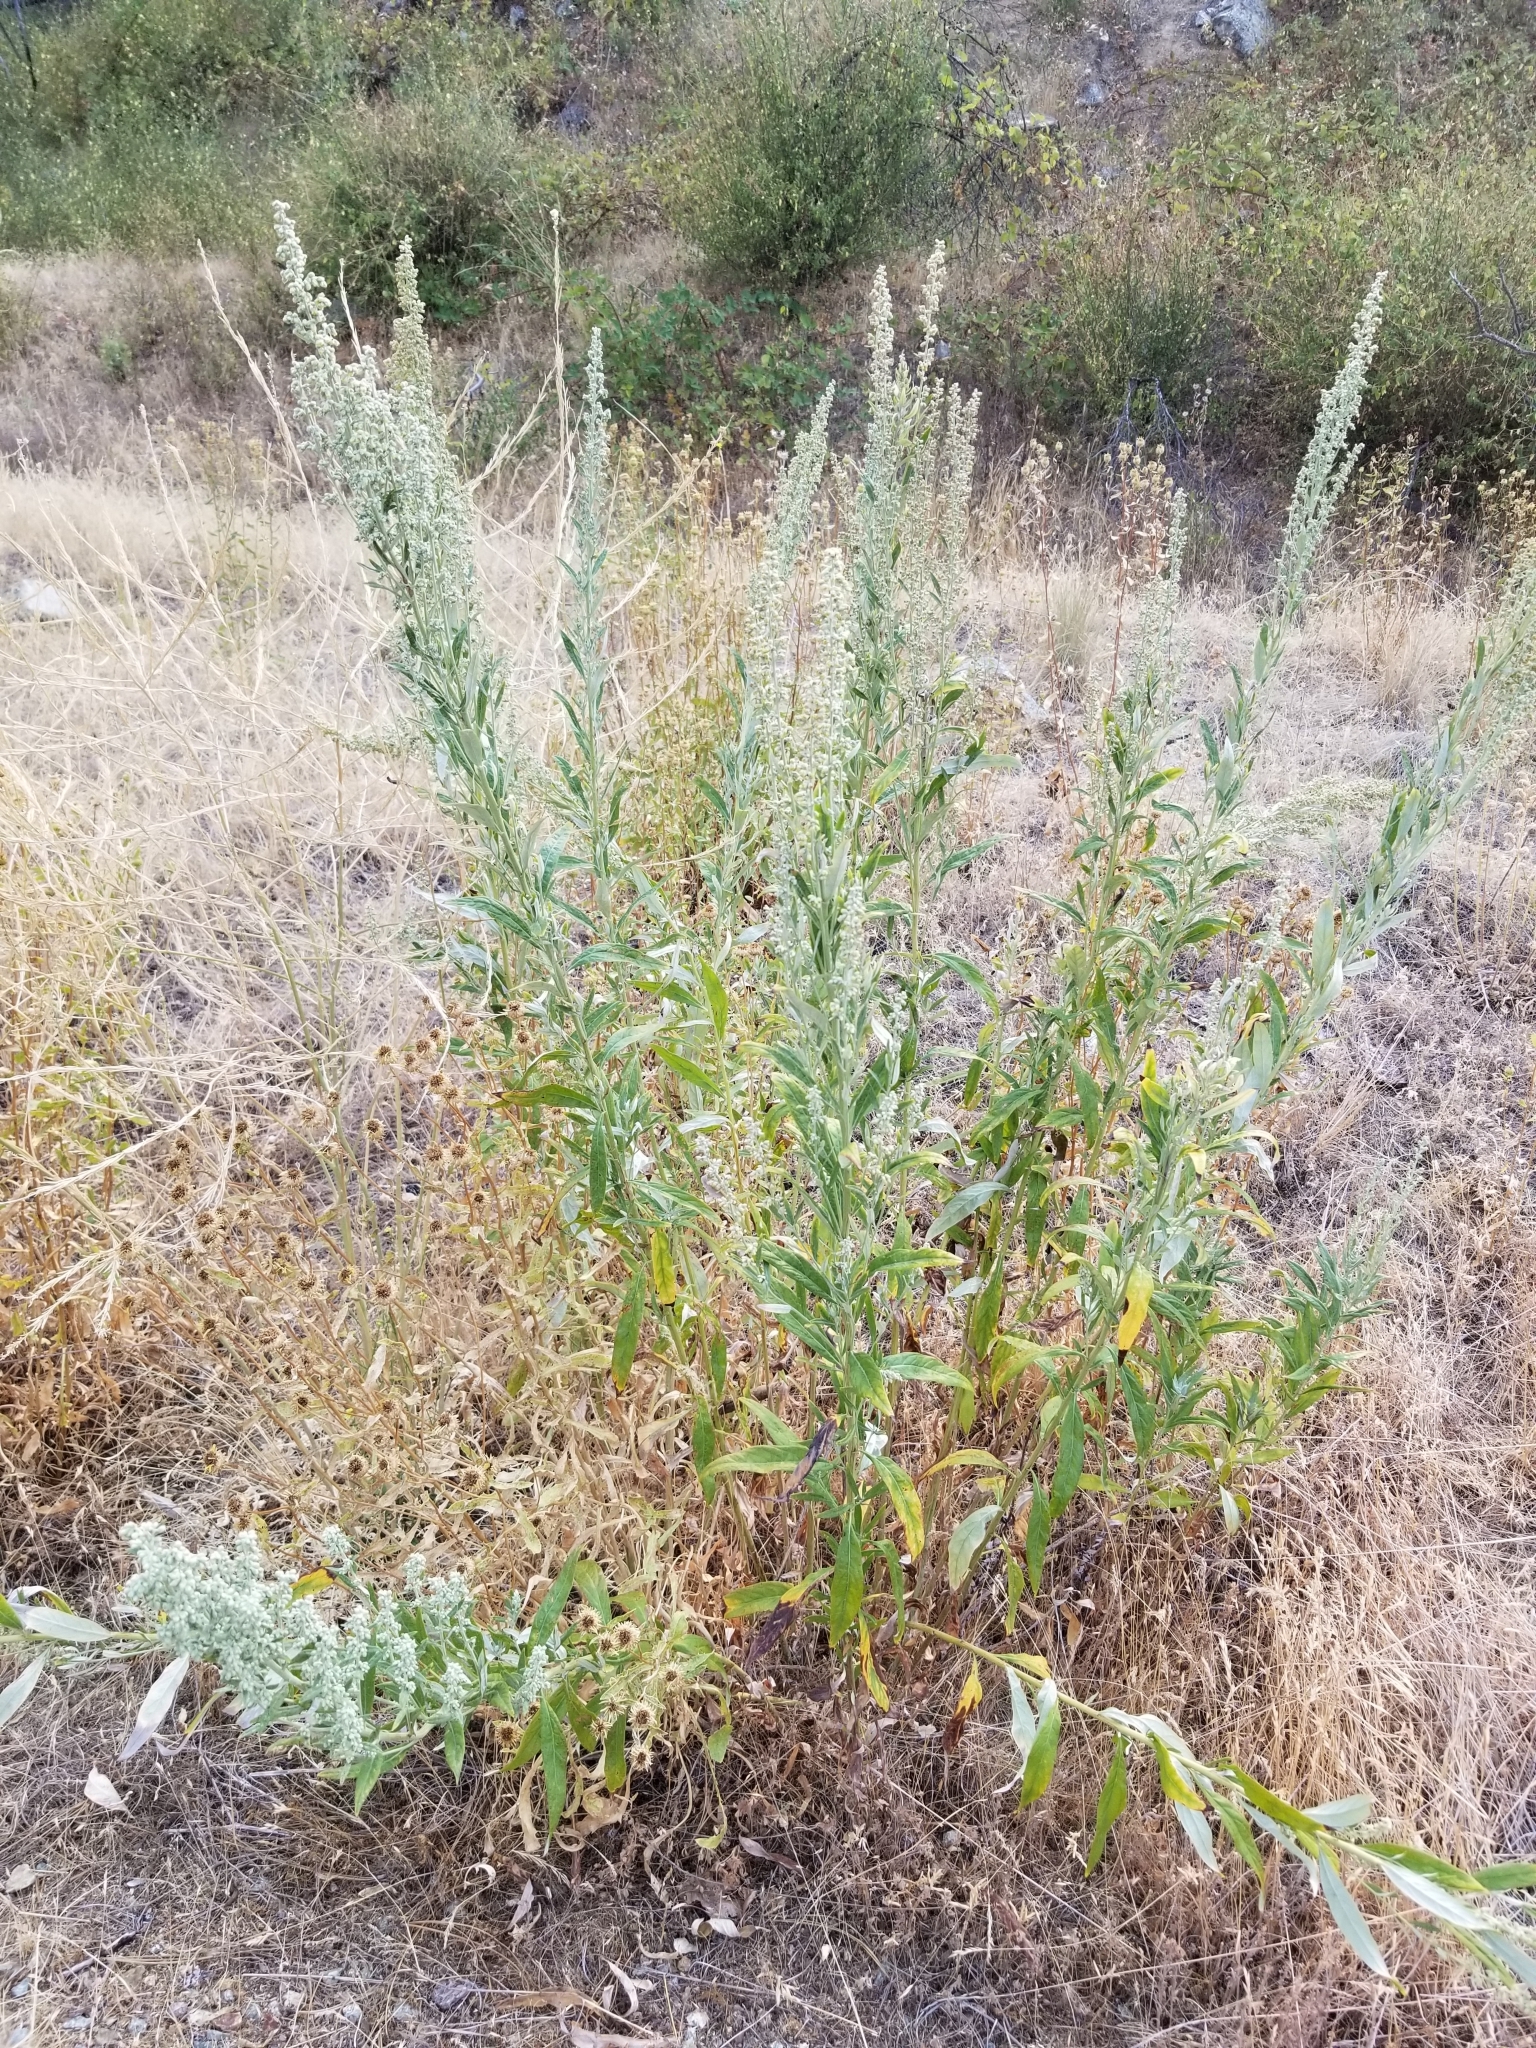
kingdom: Plantae
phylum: Tracheophyta
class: Magnoliopsida
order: Asterales
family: Asteraceae
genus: Artemisia
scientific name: Artemisia douglasiana
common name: Northwest mugwort
